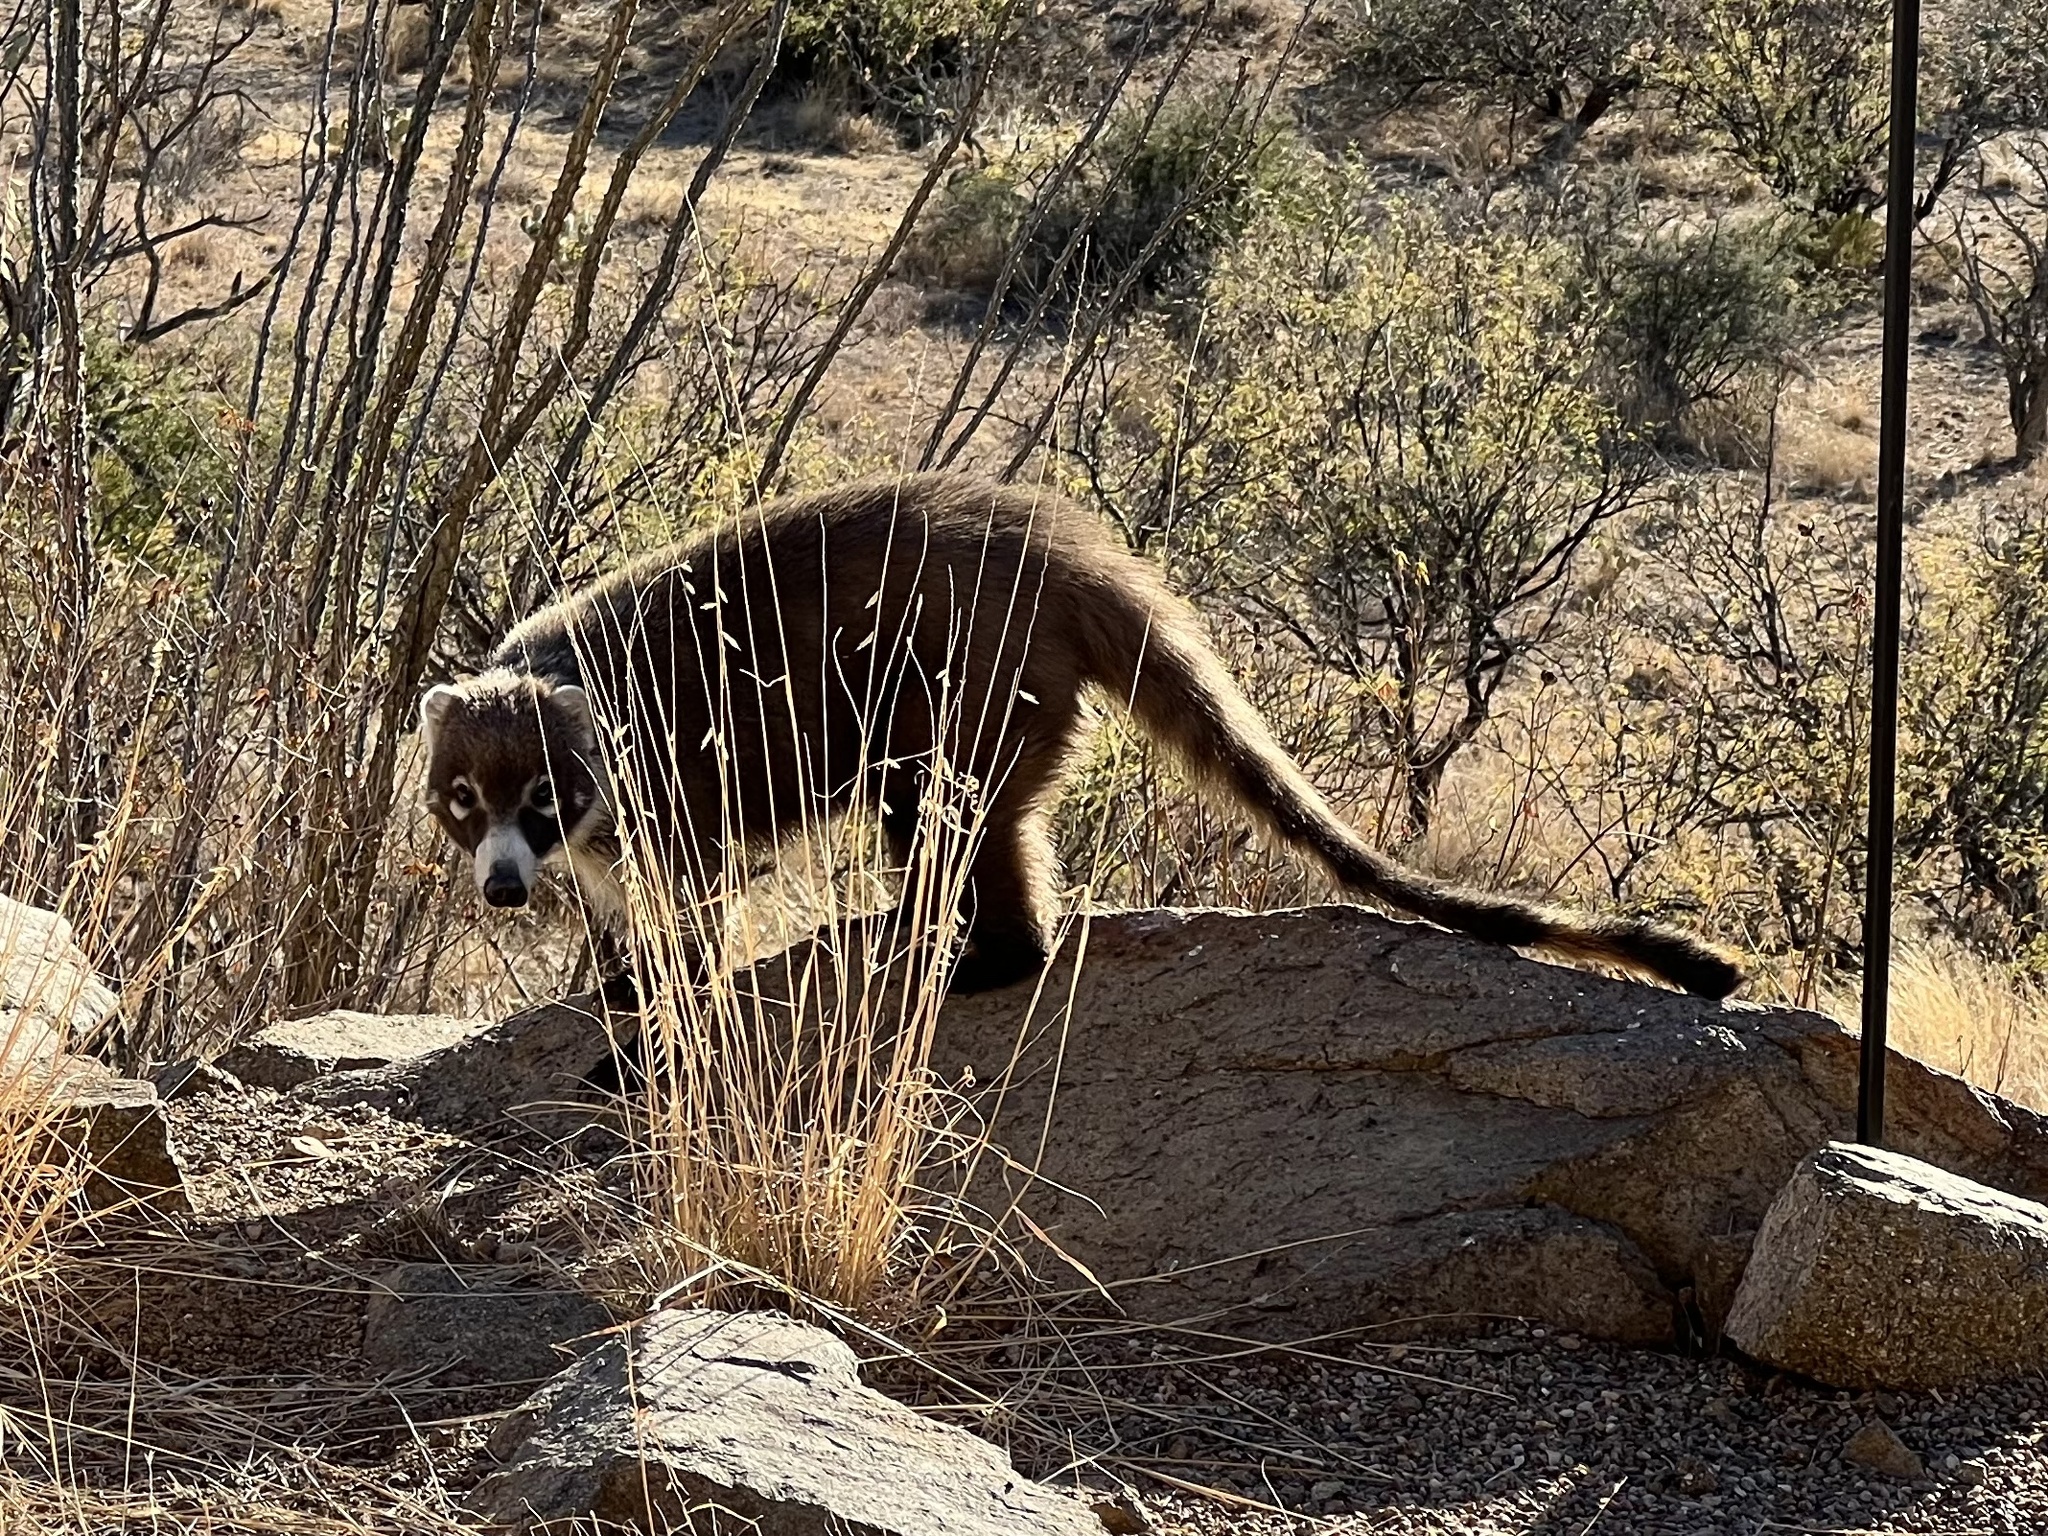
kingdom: Animalia
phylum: Chordata
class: Mammalia
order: Carnivora
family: Procyonidae
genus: Nasua
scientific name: Nasua narica
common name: White-nosed coati
